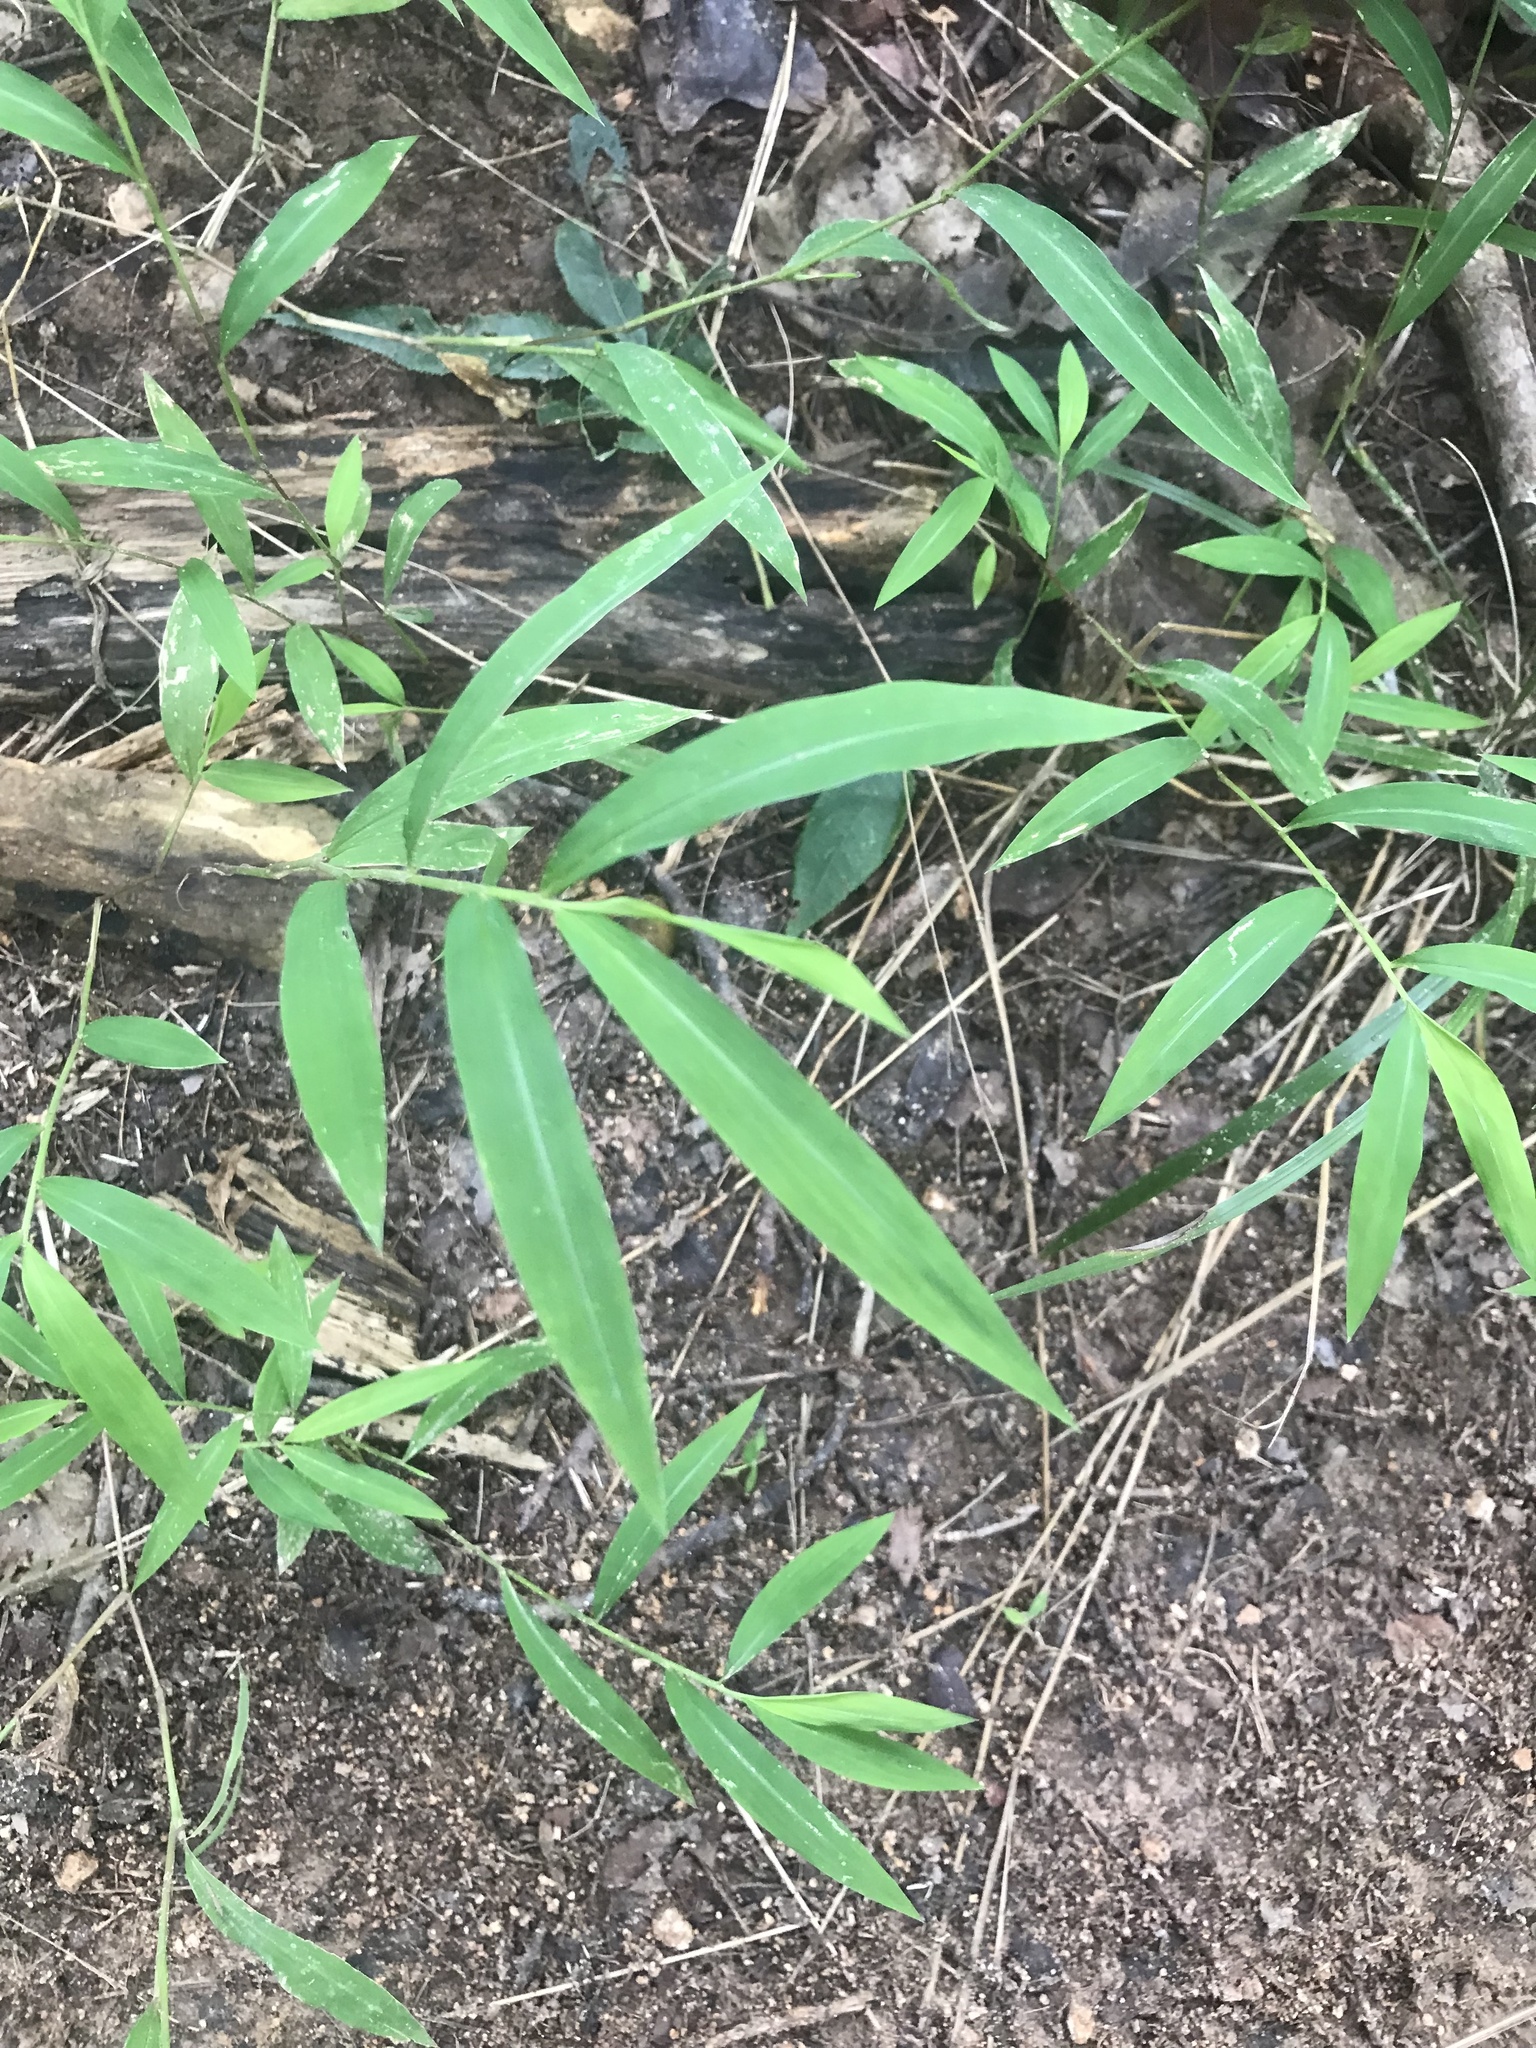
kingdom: Plantae
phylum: Tracheophyta
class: Liliopsida
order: Poales
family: Poaceae
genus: Microstegium
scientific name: Microstegium vimineum
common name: Japanese stiltgrass
